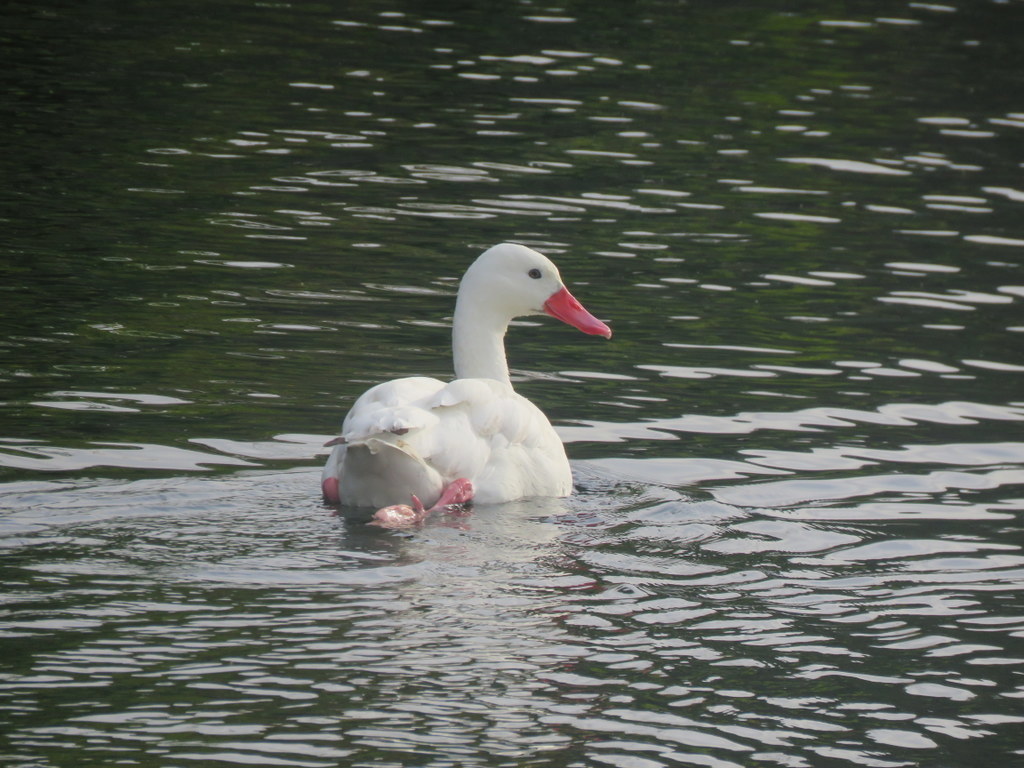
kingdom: Animalia
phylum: Chordata
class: Aves
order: Anseriformes
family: Anatidae
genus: Coscoroba
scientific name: Coscoroba coscoroba
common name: Coscoroba swan
